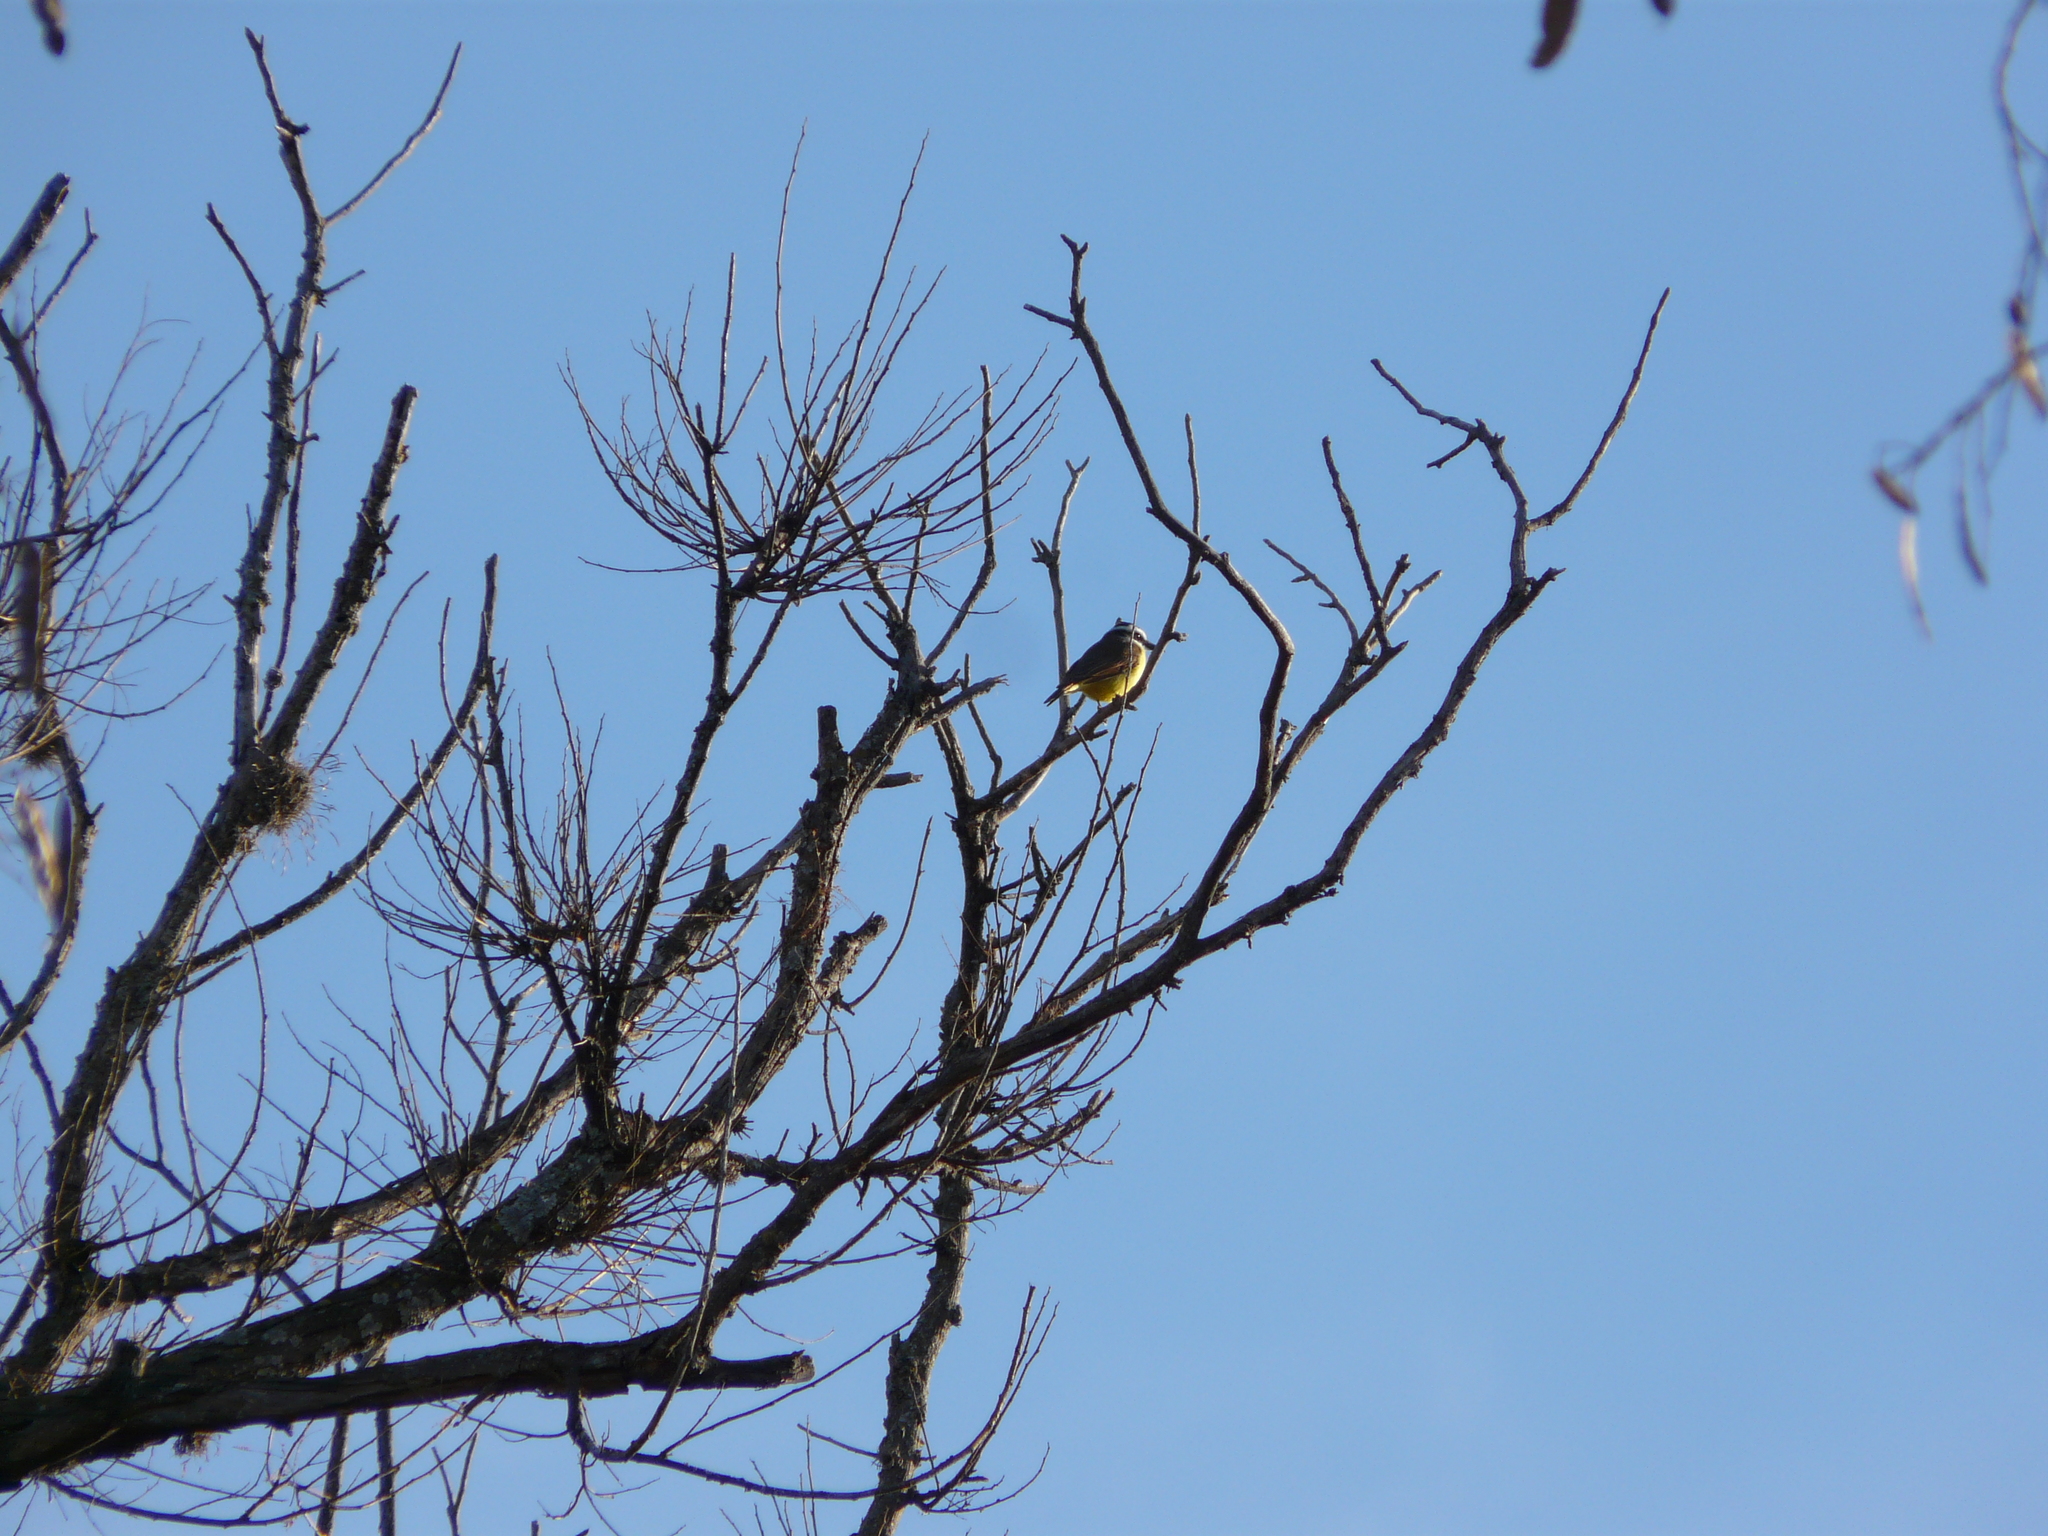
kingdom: Animalia
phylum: Chordata
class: Aves
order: Passeriformes
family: Tyrannidae
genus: Pitangus
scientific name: Pitangus sulphuratus
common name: Great kiskadee
